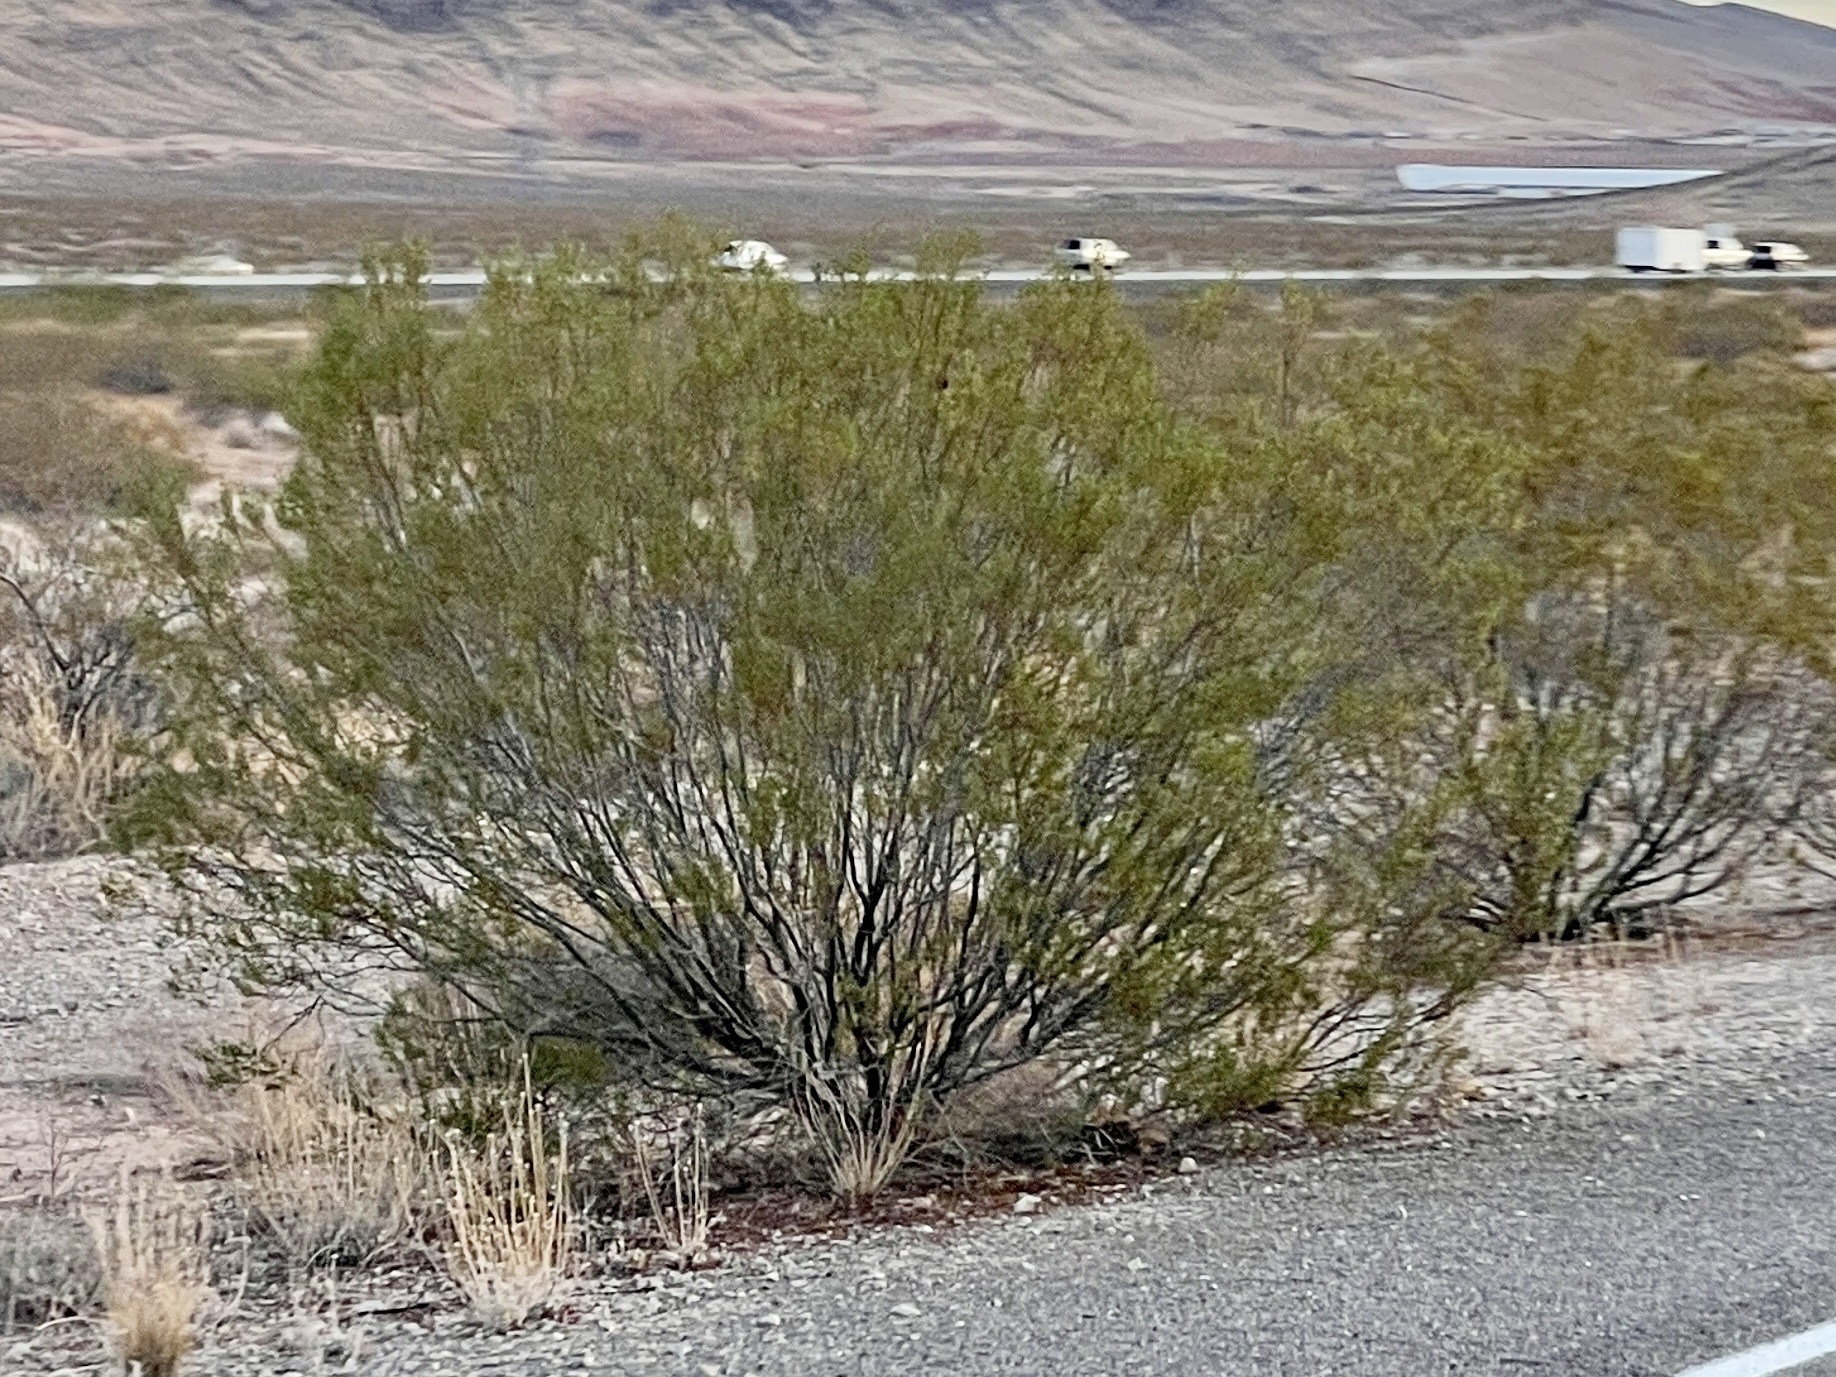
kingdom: Plantae
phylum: Tracheophyta
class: Magnoliopsida
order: Zygophyllales
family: Zygophyllaceae
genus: Larrea
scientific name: Larrea tridentata
